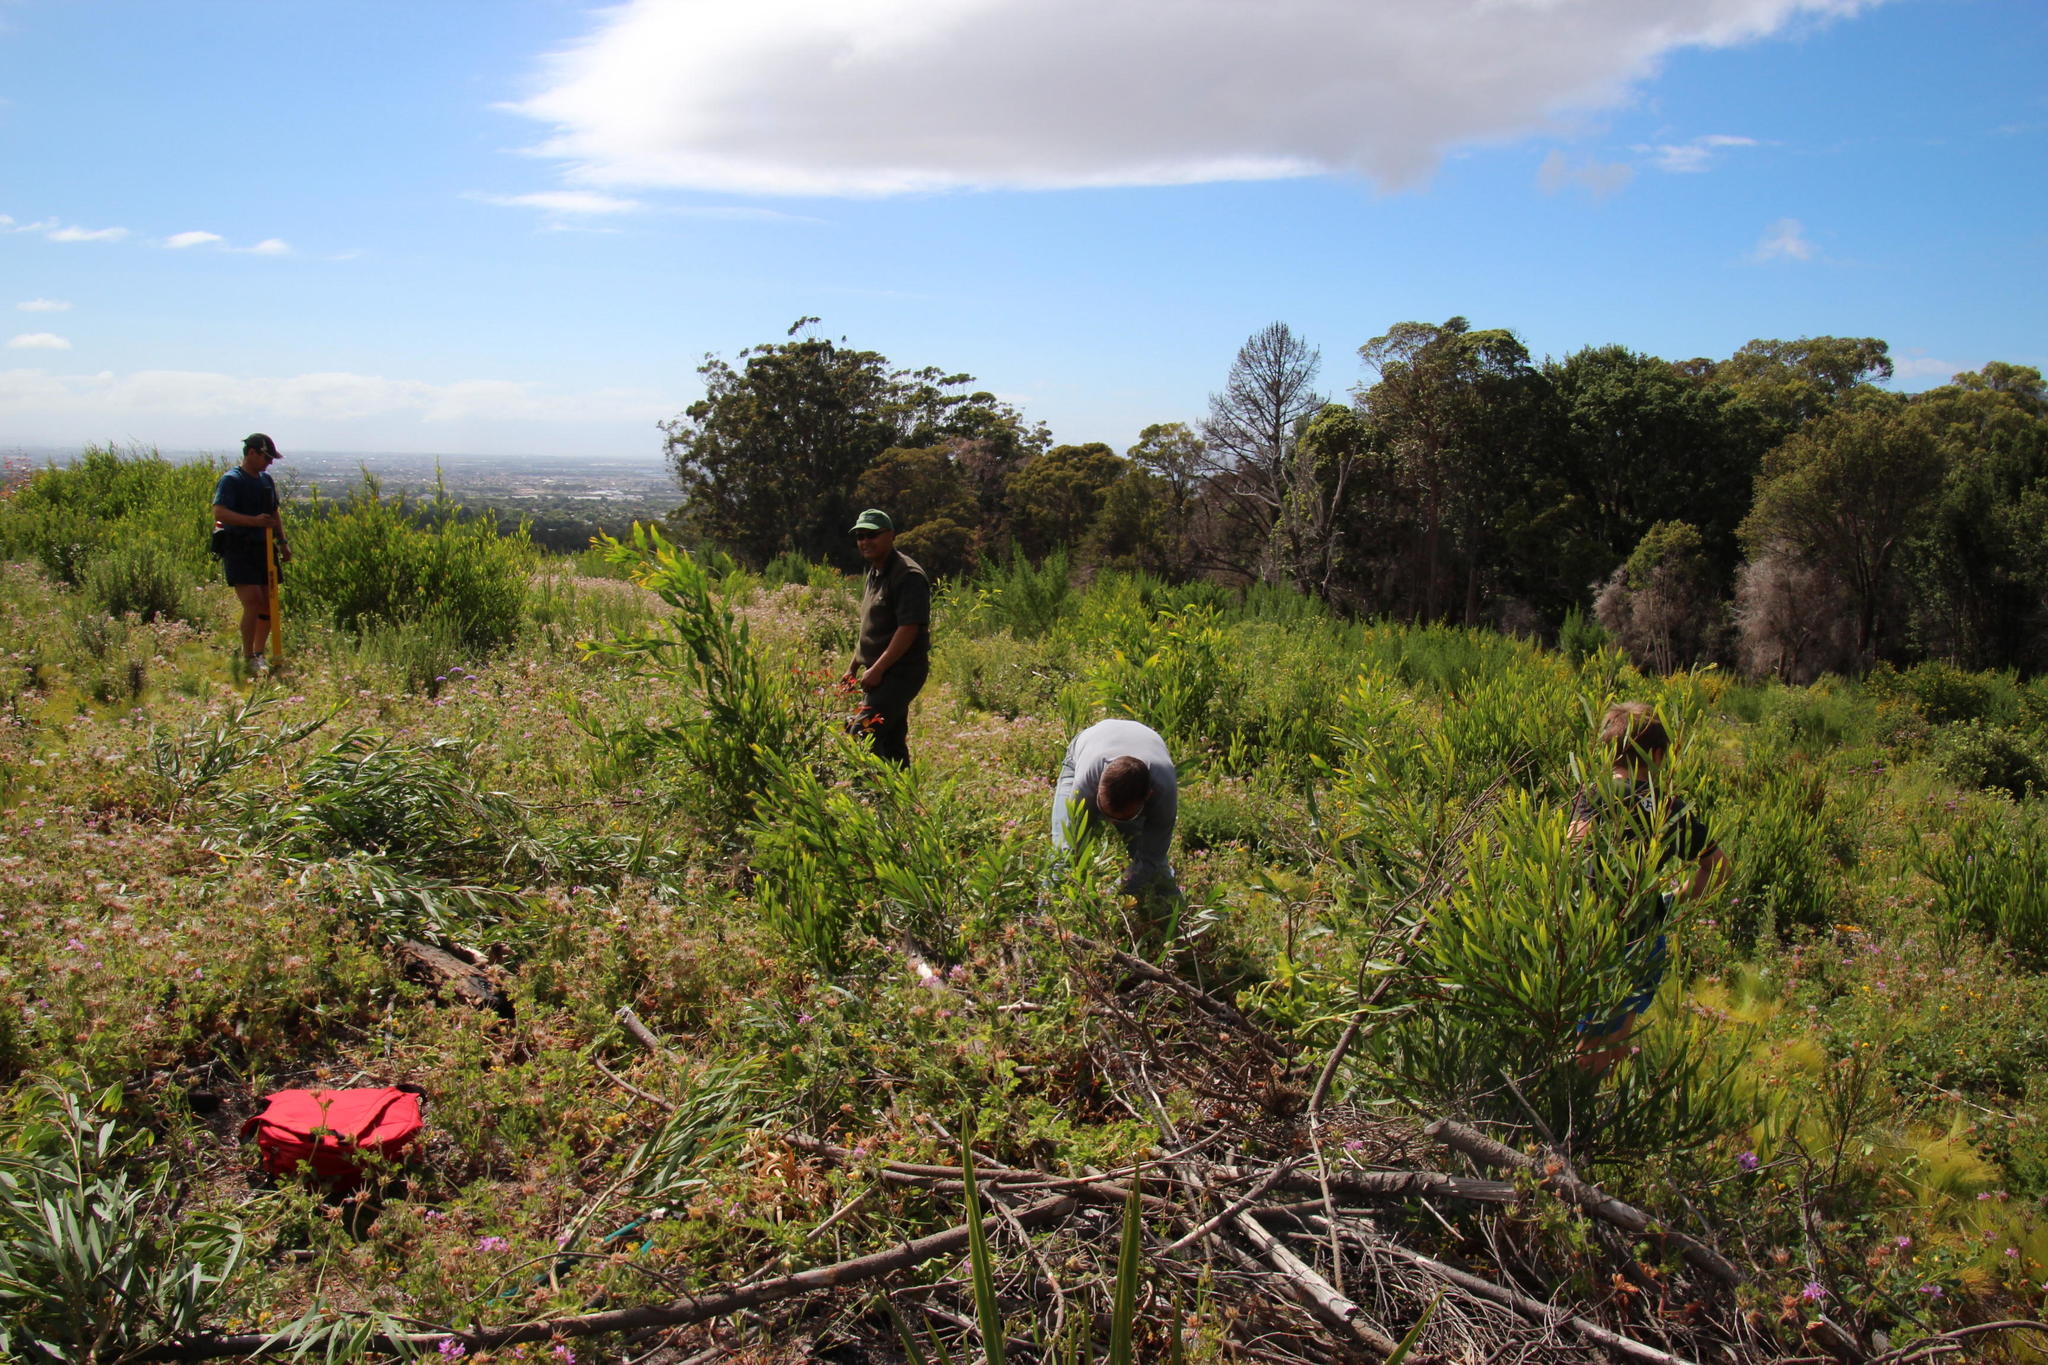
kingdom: Plantae
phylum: Tracheophyta
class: Magnoliopsida
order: Fabales
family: Fabaceae
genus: Acacia
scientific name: Acacia longifolia
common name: Sydney golden wattle
